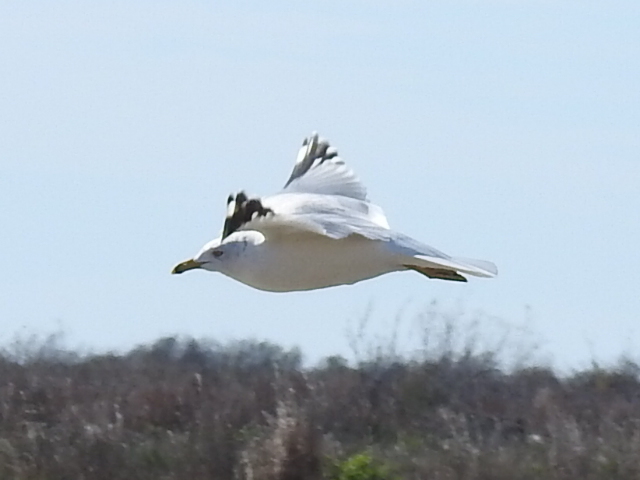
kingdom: Animalia
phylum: Chordata
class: Aves
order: Charadriiformes
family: Laridae
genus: Larus
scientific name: Larus delawarensis
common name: Ring-billed gull
